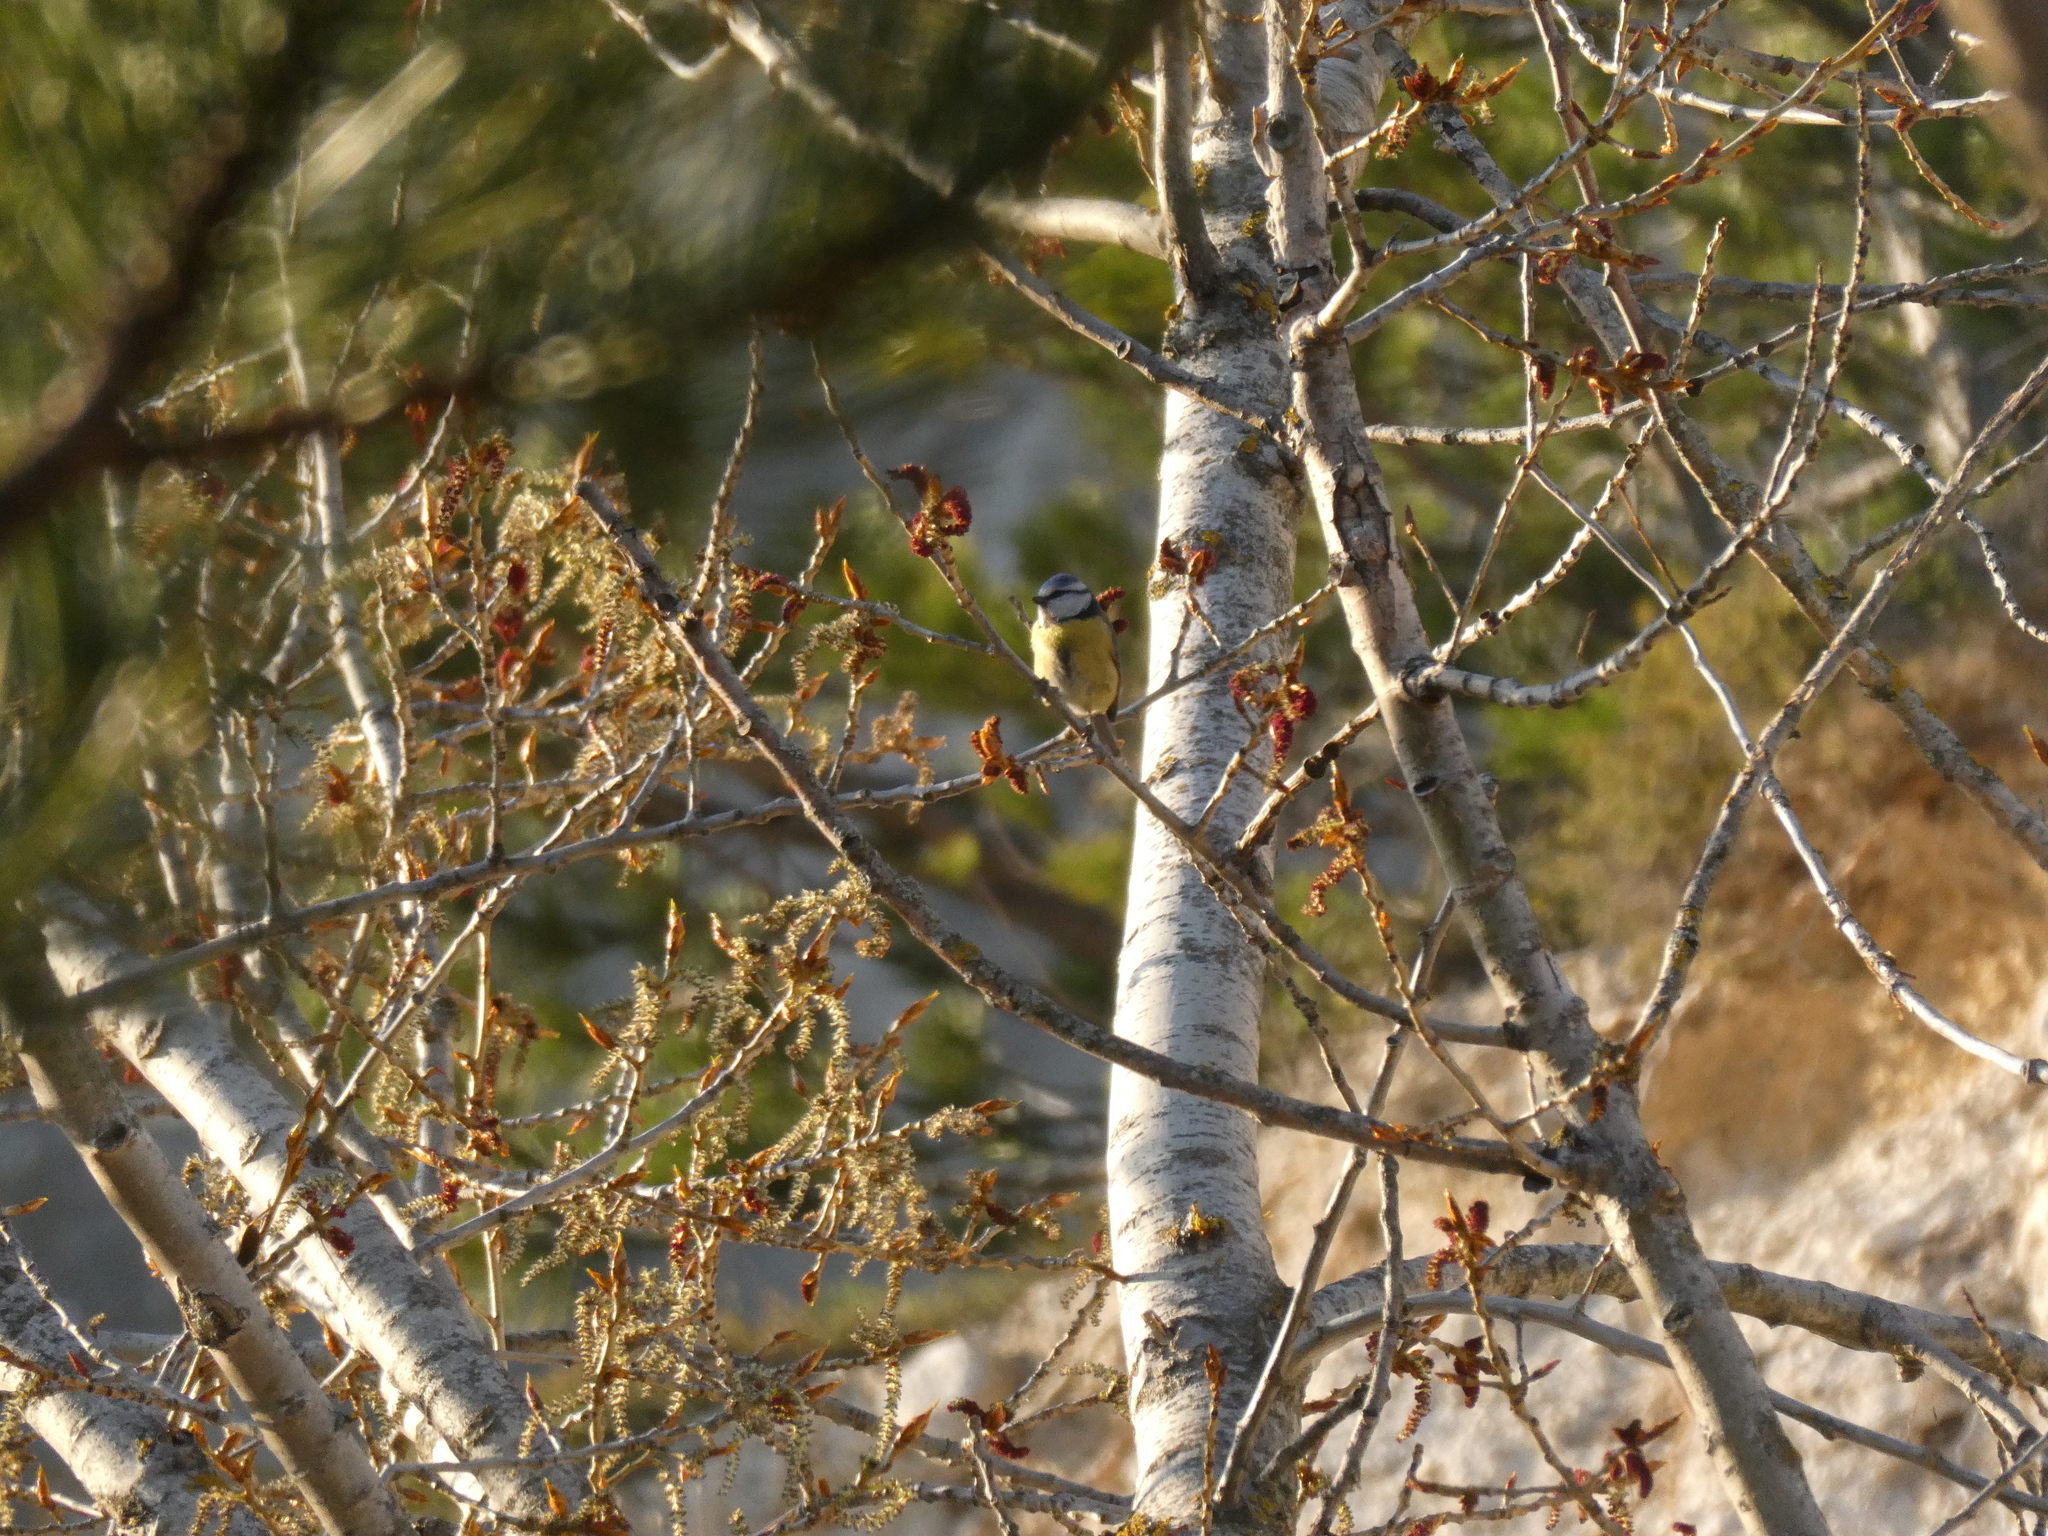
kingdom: Animalia
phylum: Chordata
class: Aves
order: Passeriformes
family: Paridae
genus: Cyanistes
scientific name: Cyanistes caeruleus
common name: Eurasian blue tit
